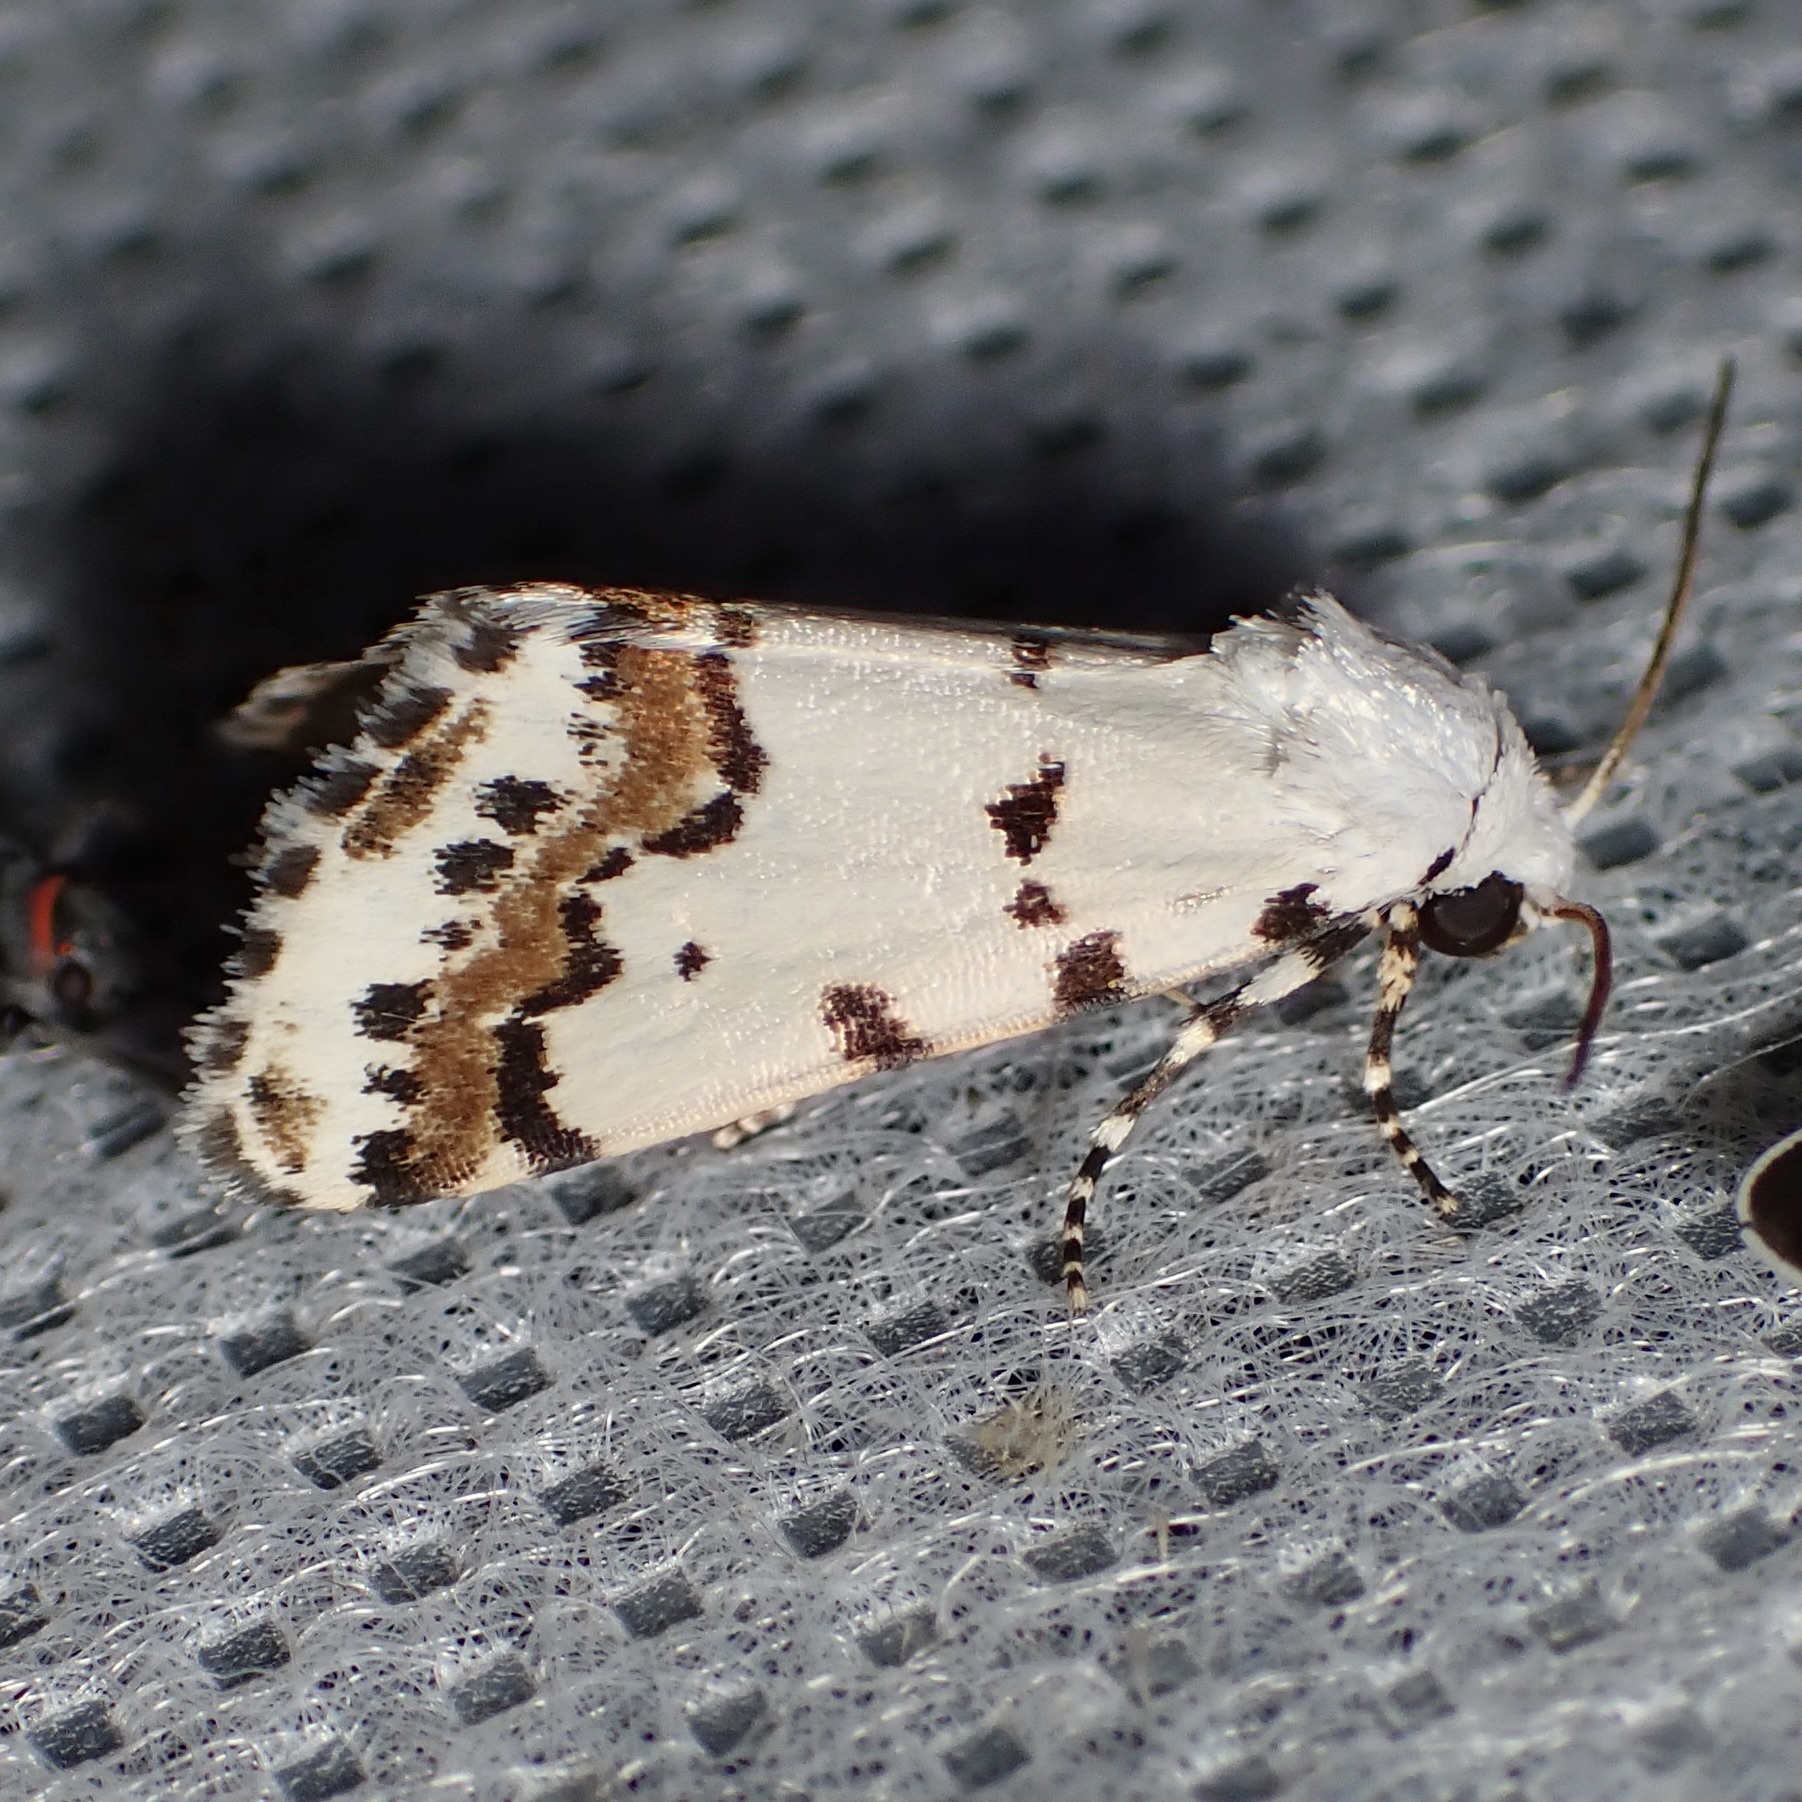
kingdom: Animalia
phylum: Arthropoda
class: Insecta
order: Lepidoptera
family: Noctuidae
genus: Grotella
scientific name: Grotella tricolor
